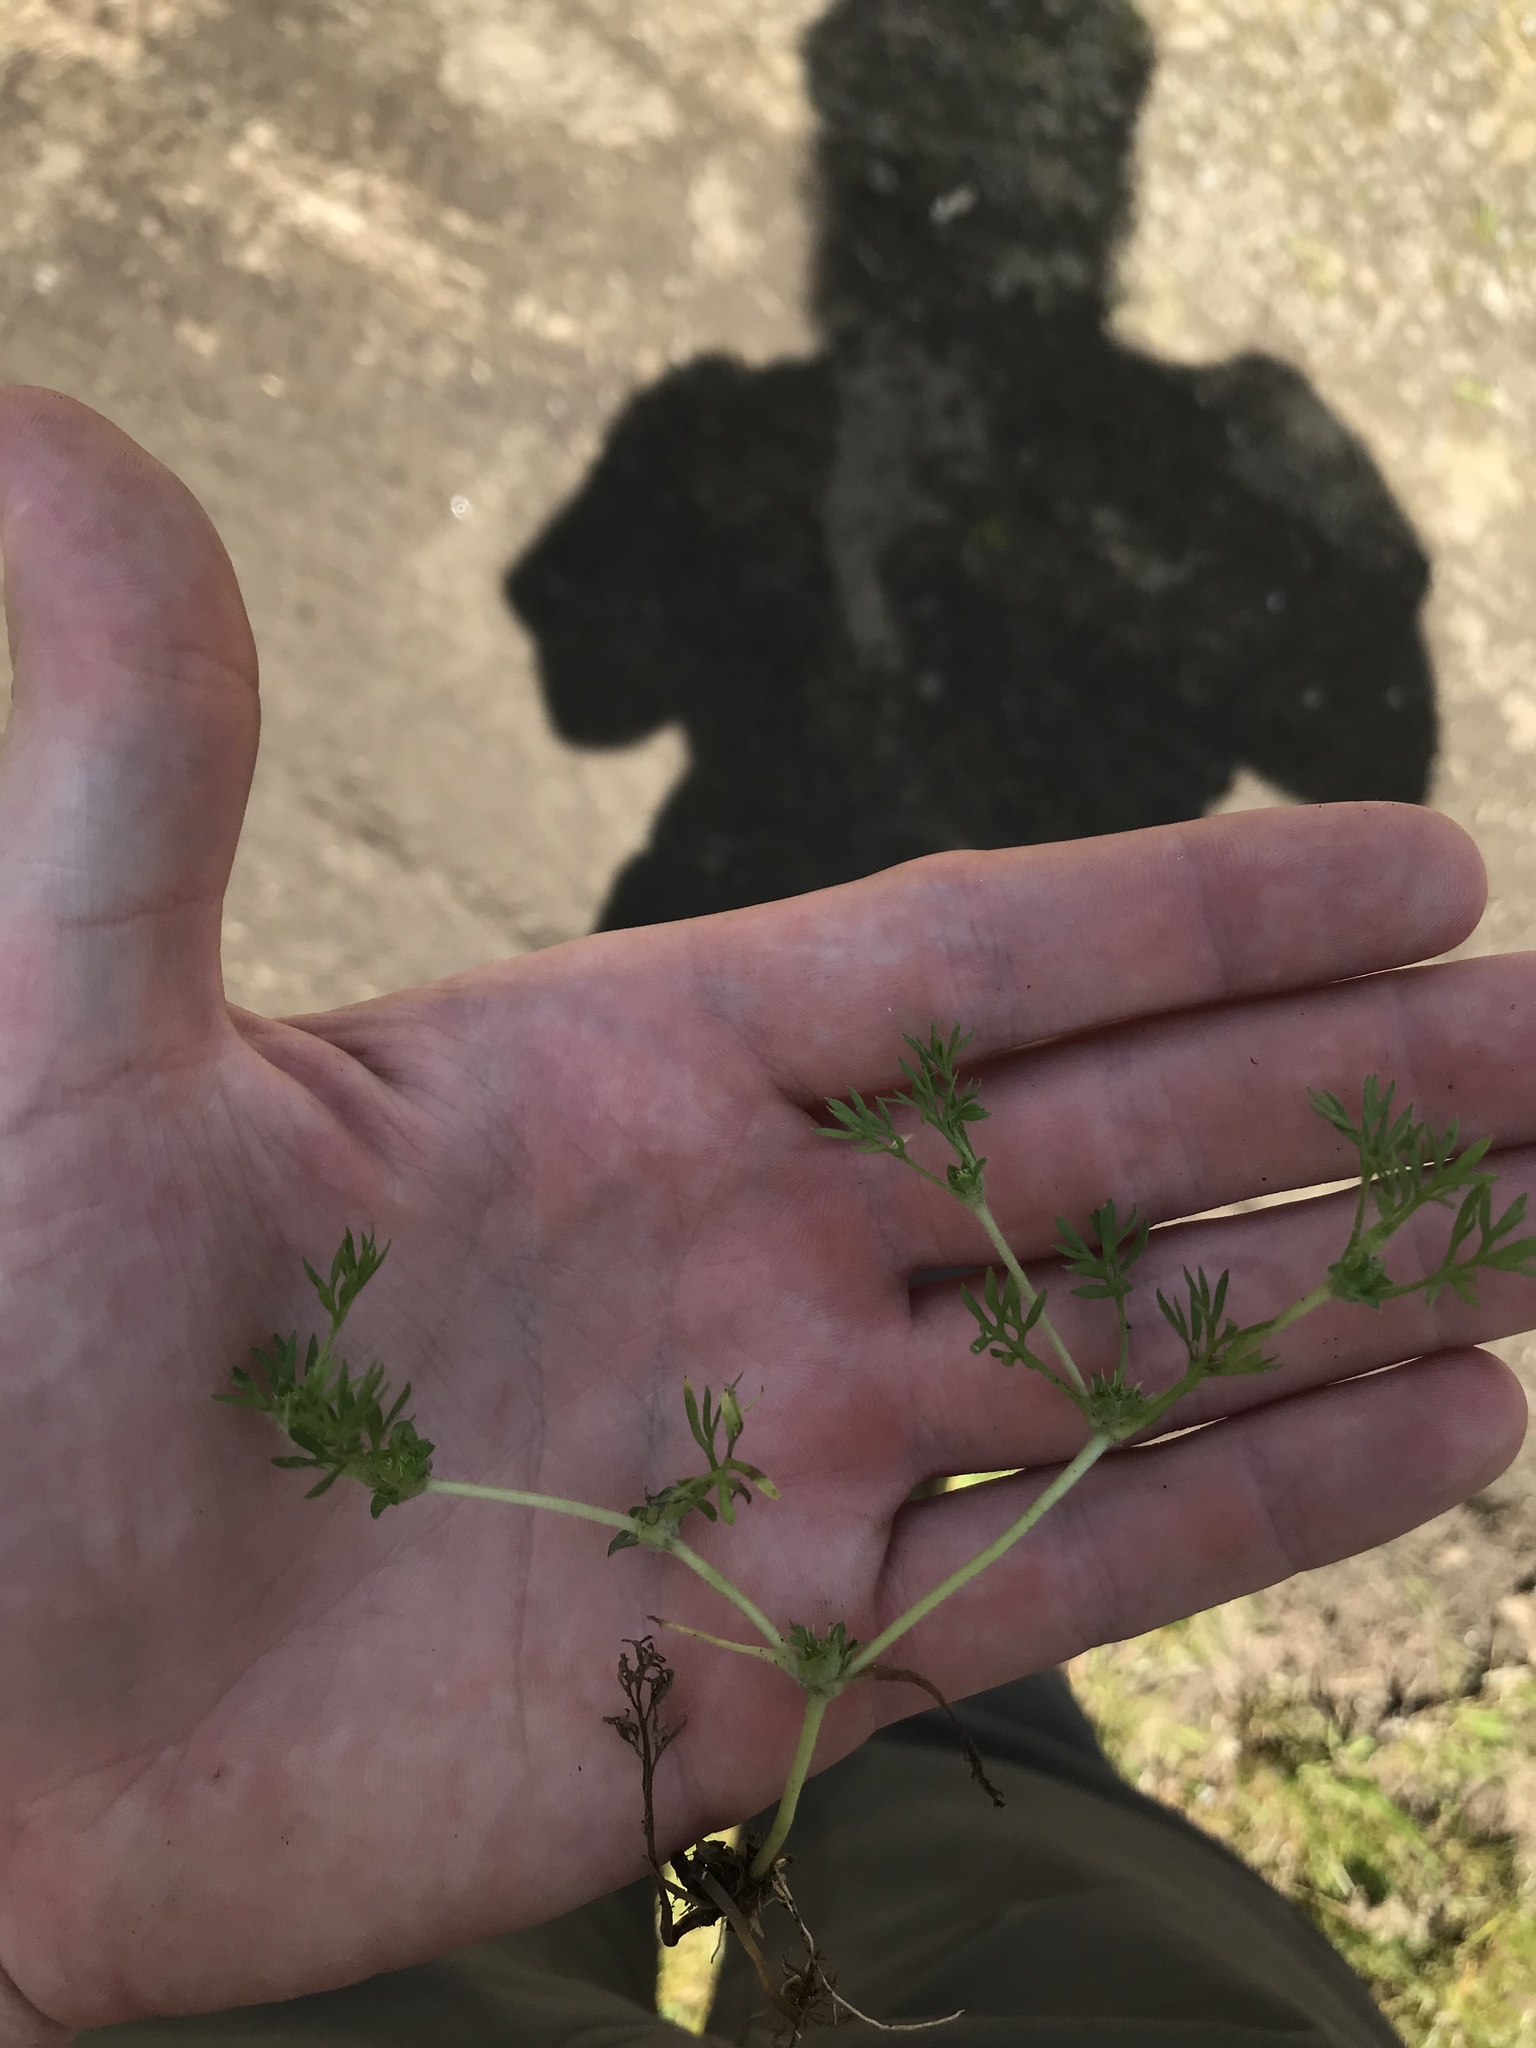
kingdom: Plantae
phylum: Tracheophyta
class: Magnoliopsida
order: Asterales
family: Asteraceae
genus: Soliva
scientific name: Soliva sessilis
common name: Field burrweed
